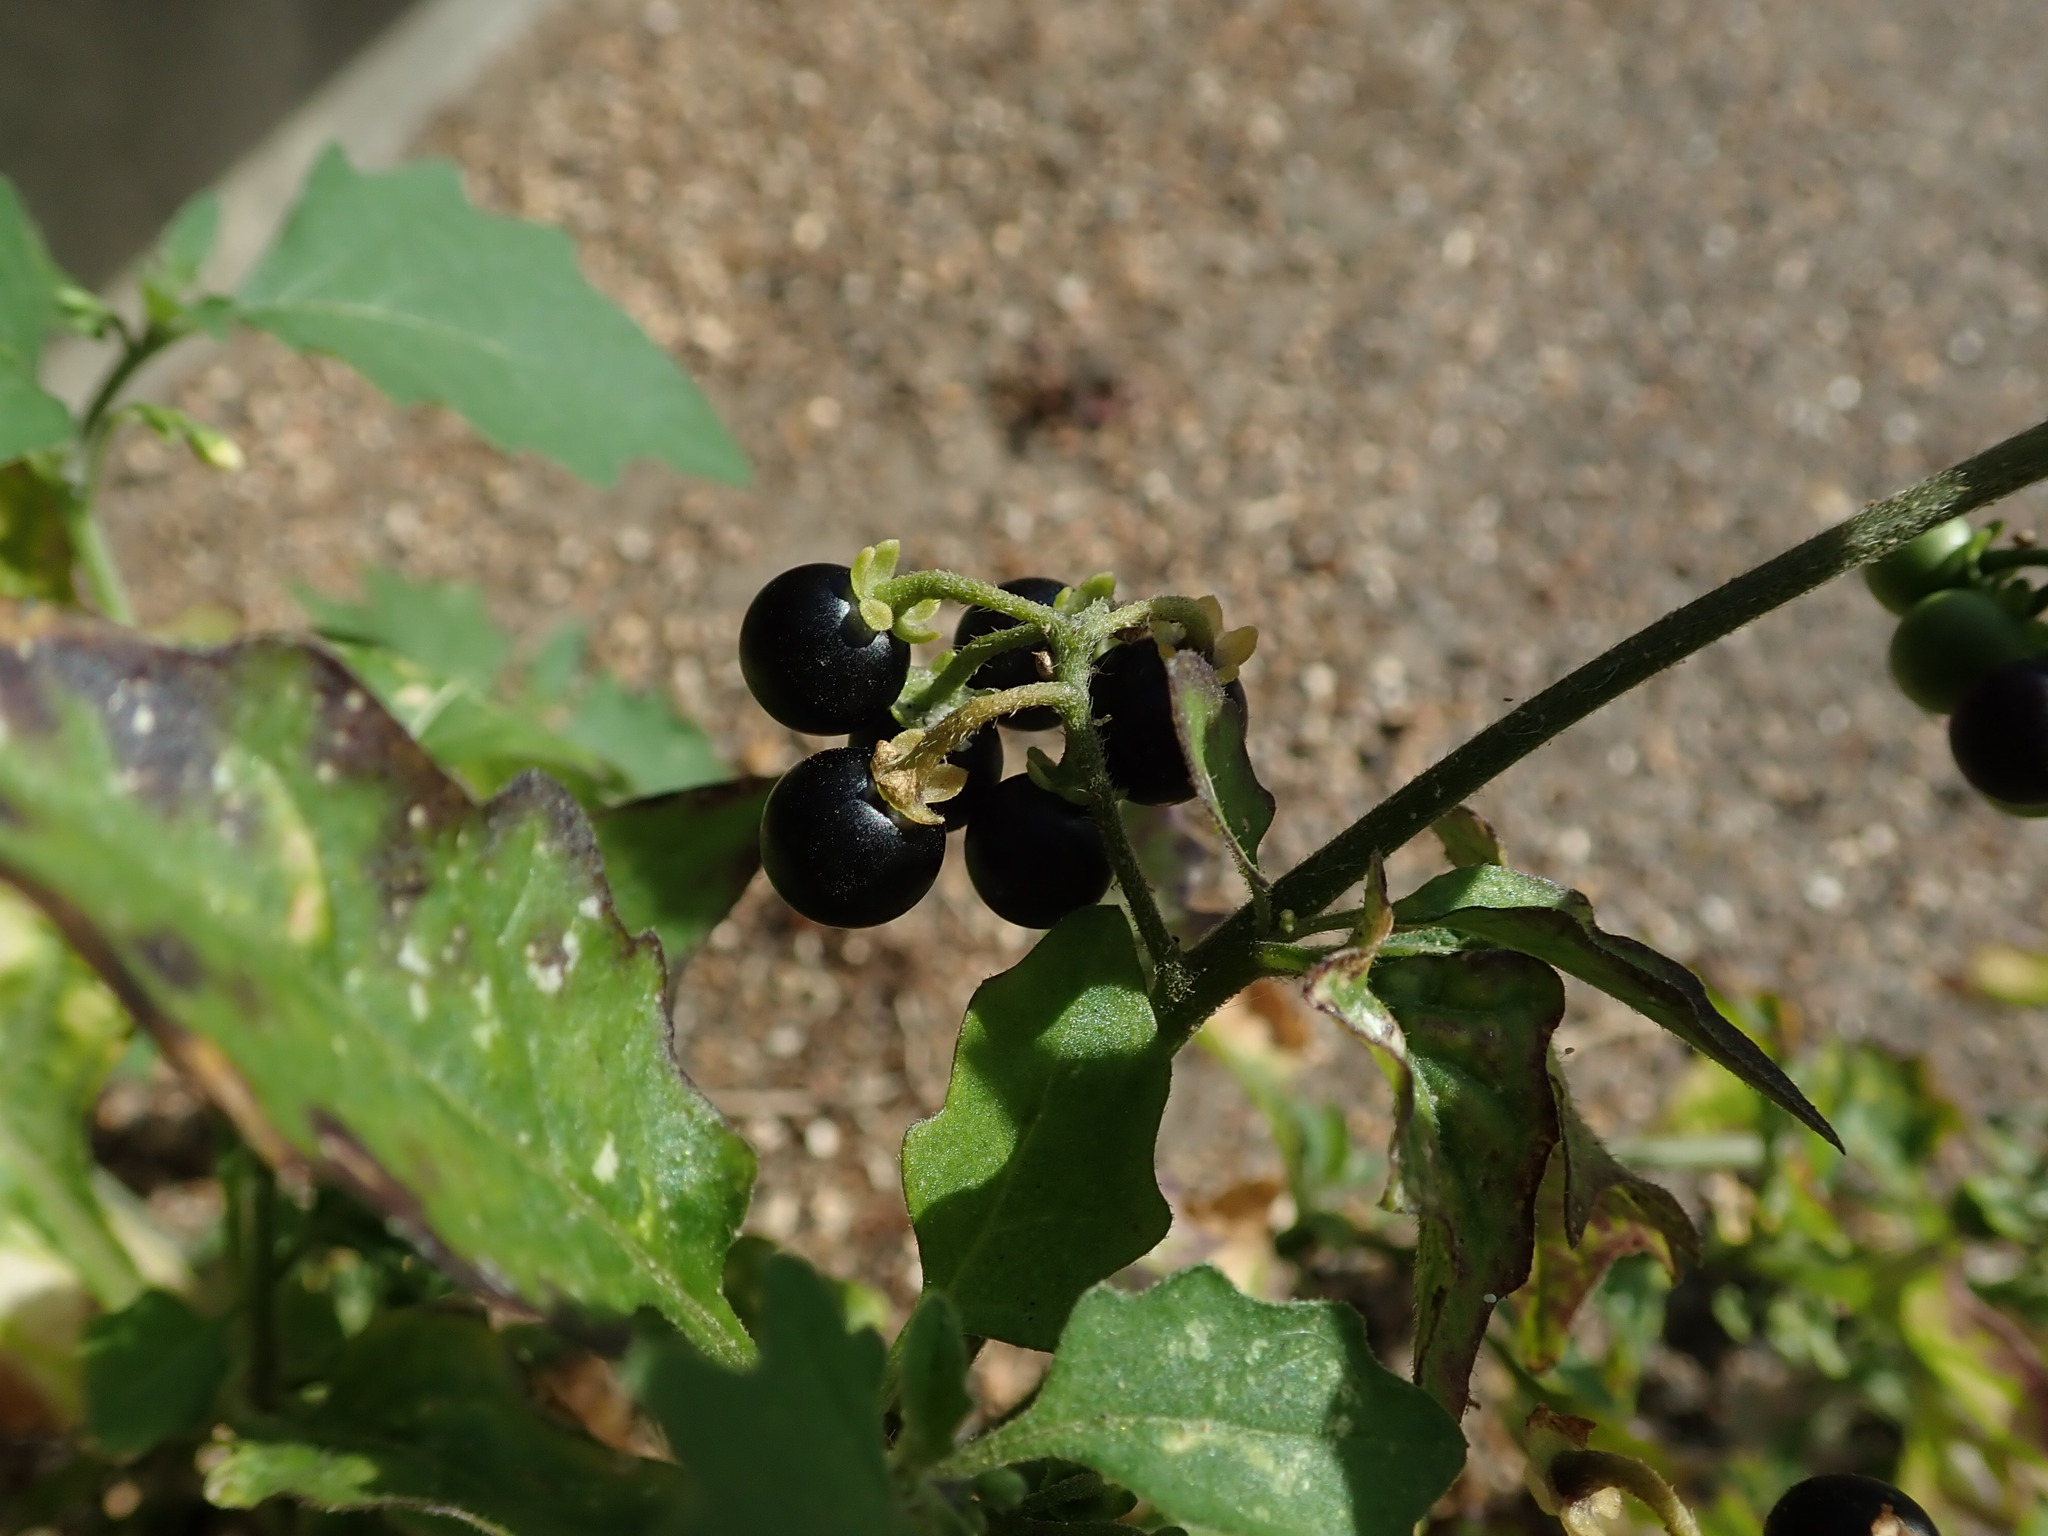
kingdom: Plantae
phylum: Tracheophyta
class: Magnoliopsida
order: Solanales
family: Solanaceae
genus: Solanum
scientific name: Solanum nigrum
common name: Black nightshade
